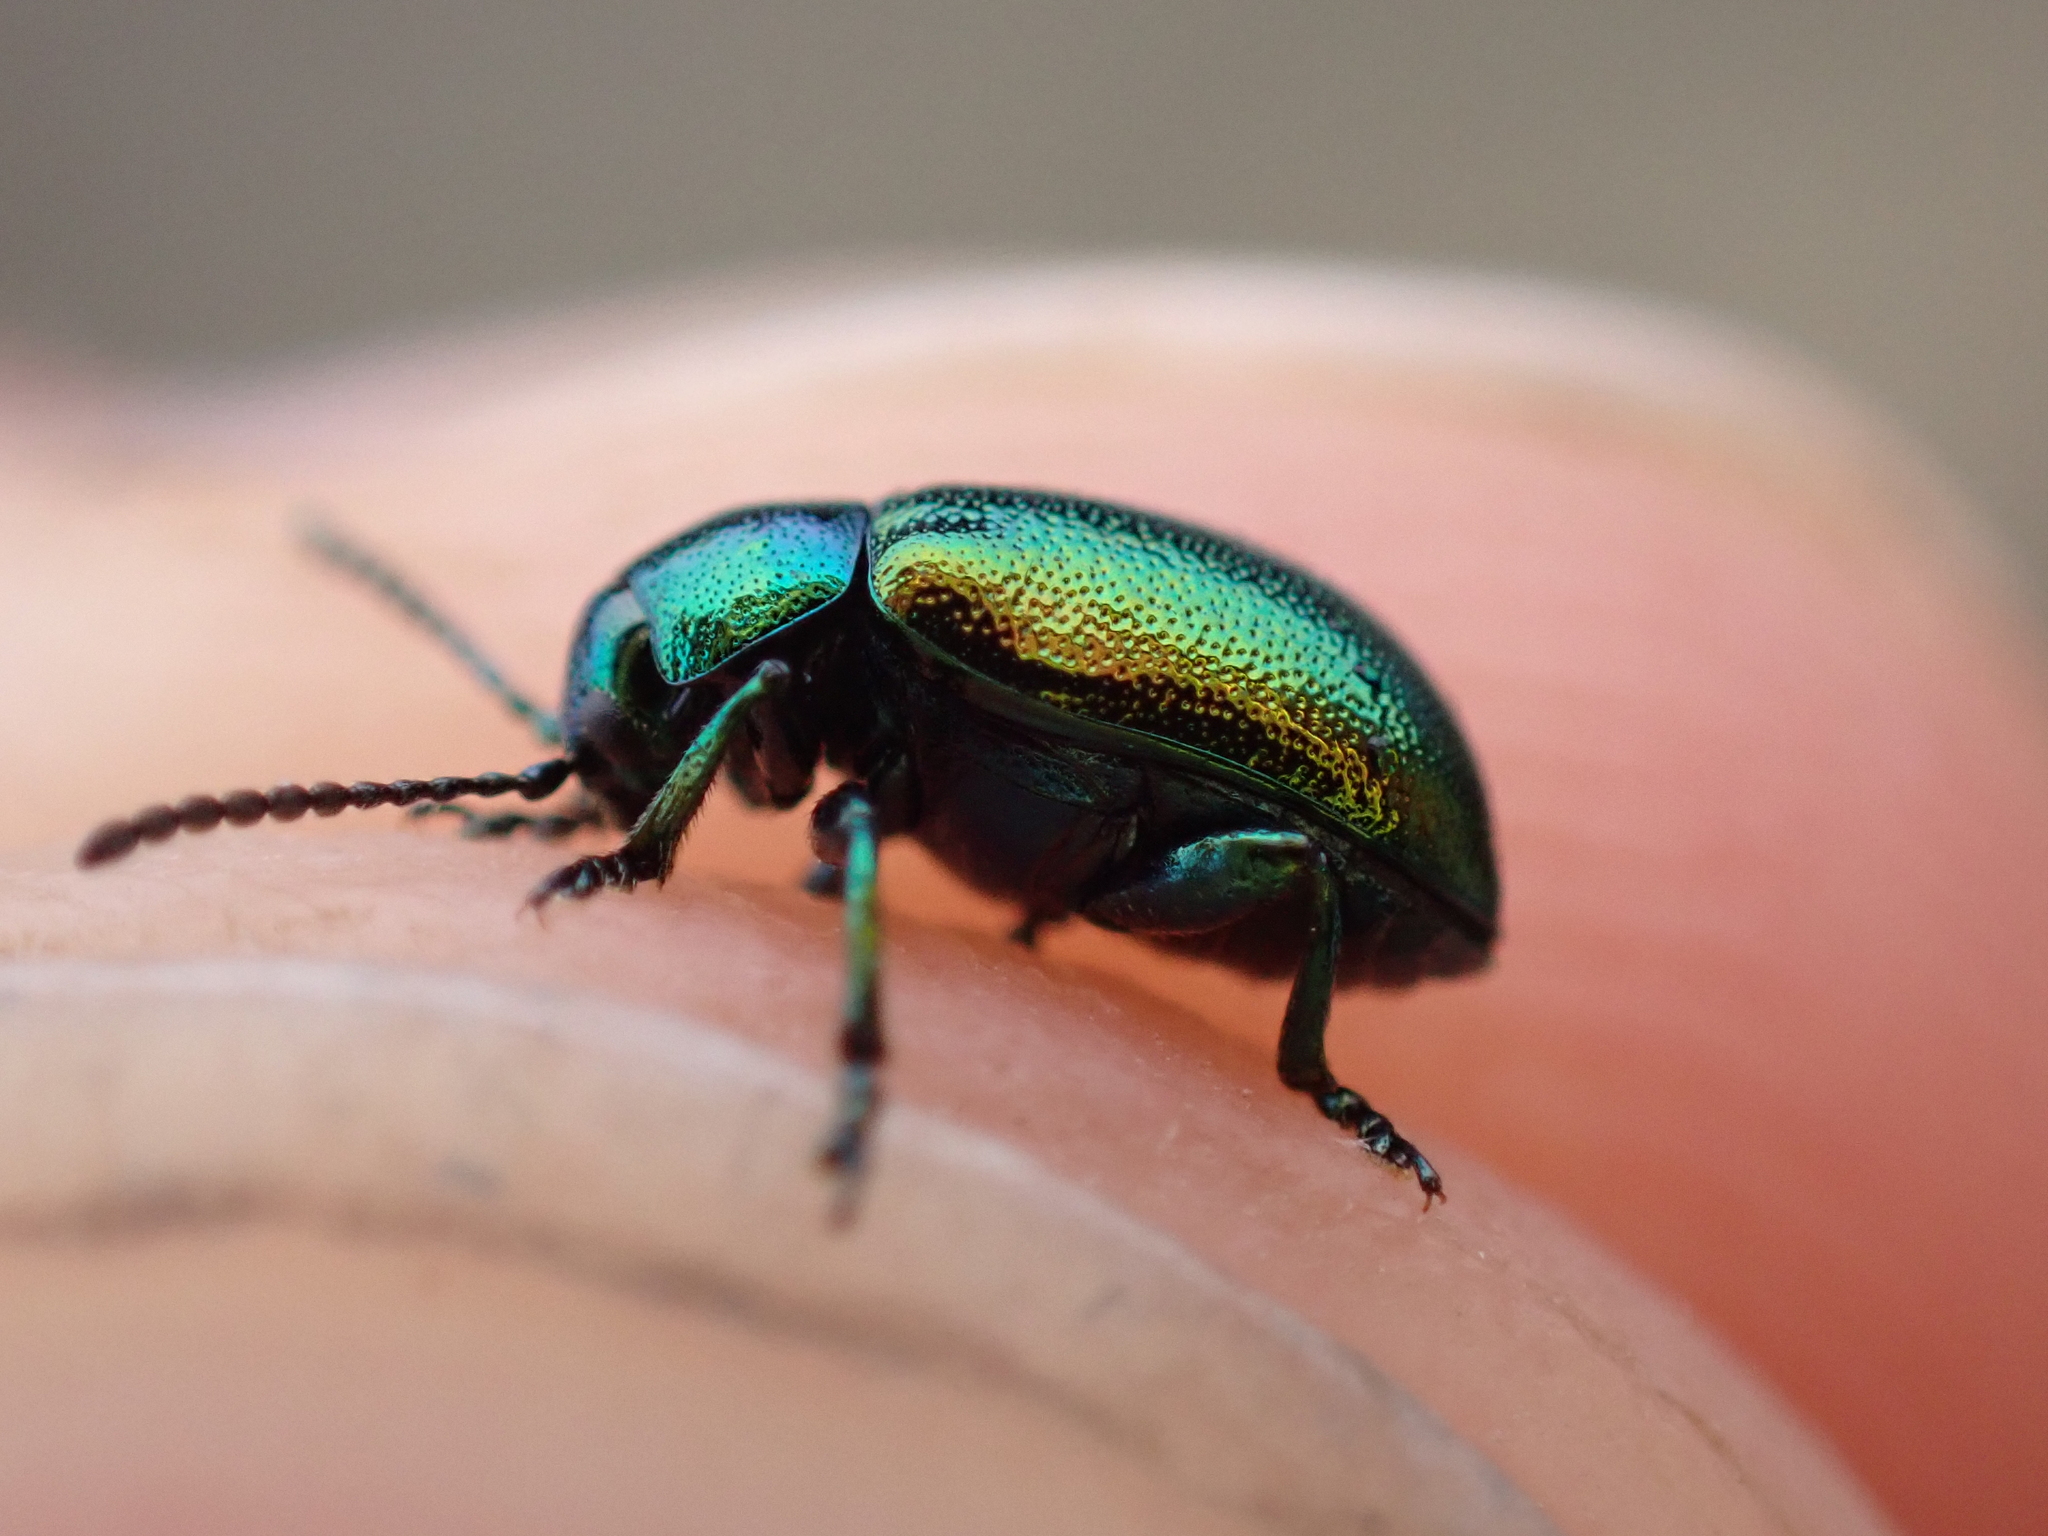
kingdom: Animalia
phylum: Arthropoda
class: Insecta
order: Coleoptera
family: Chrysomelidae
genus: Gastrophysa
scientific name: Gastrophysa viridula
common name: Green dock beetle
